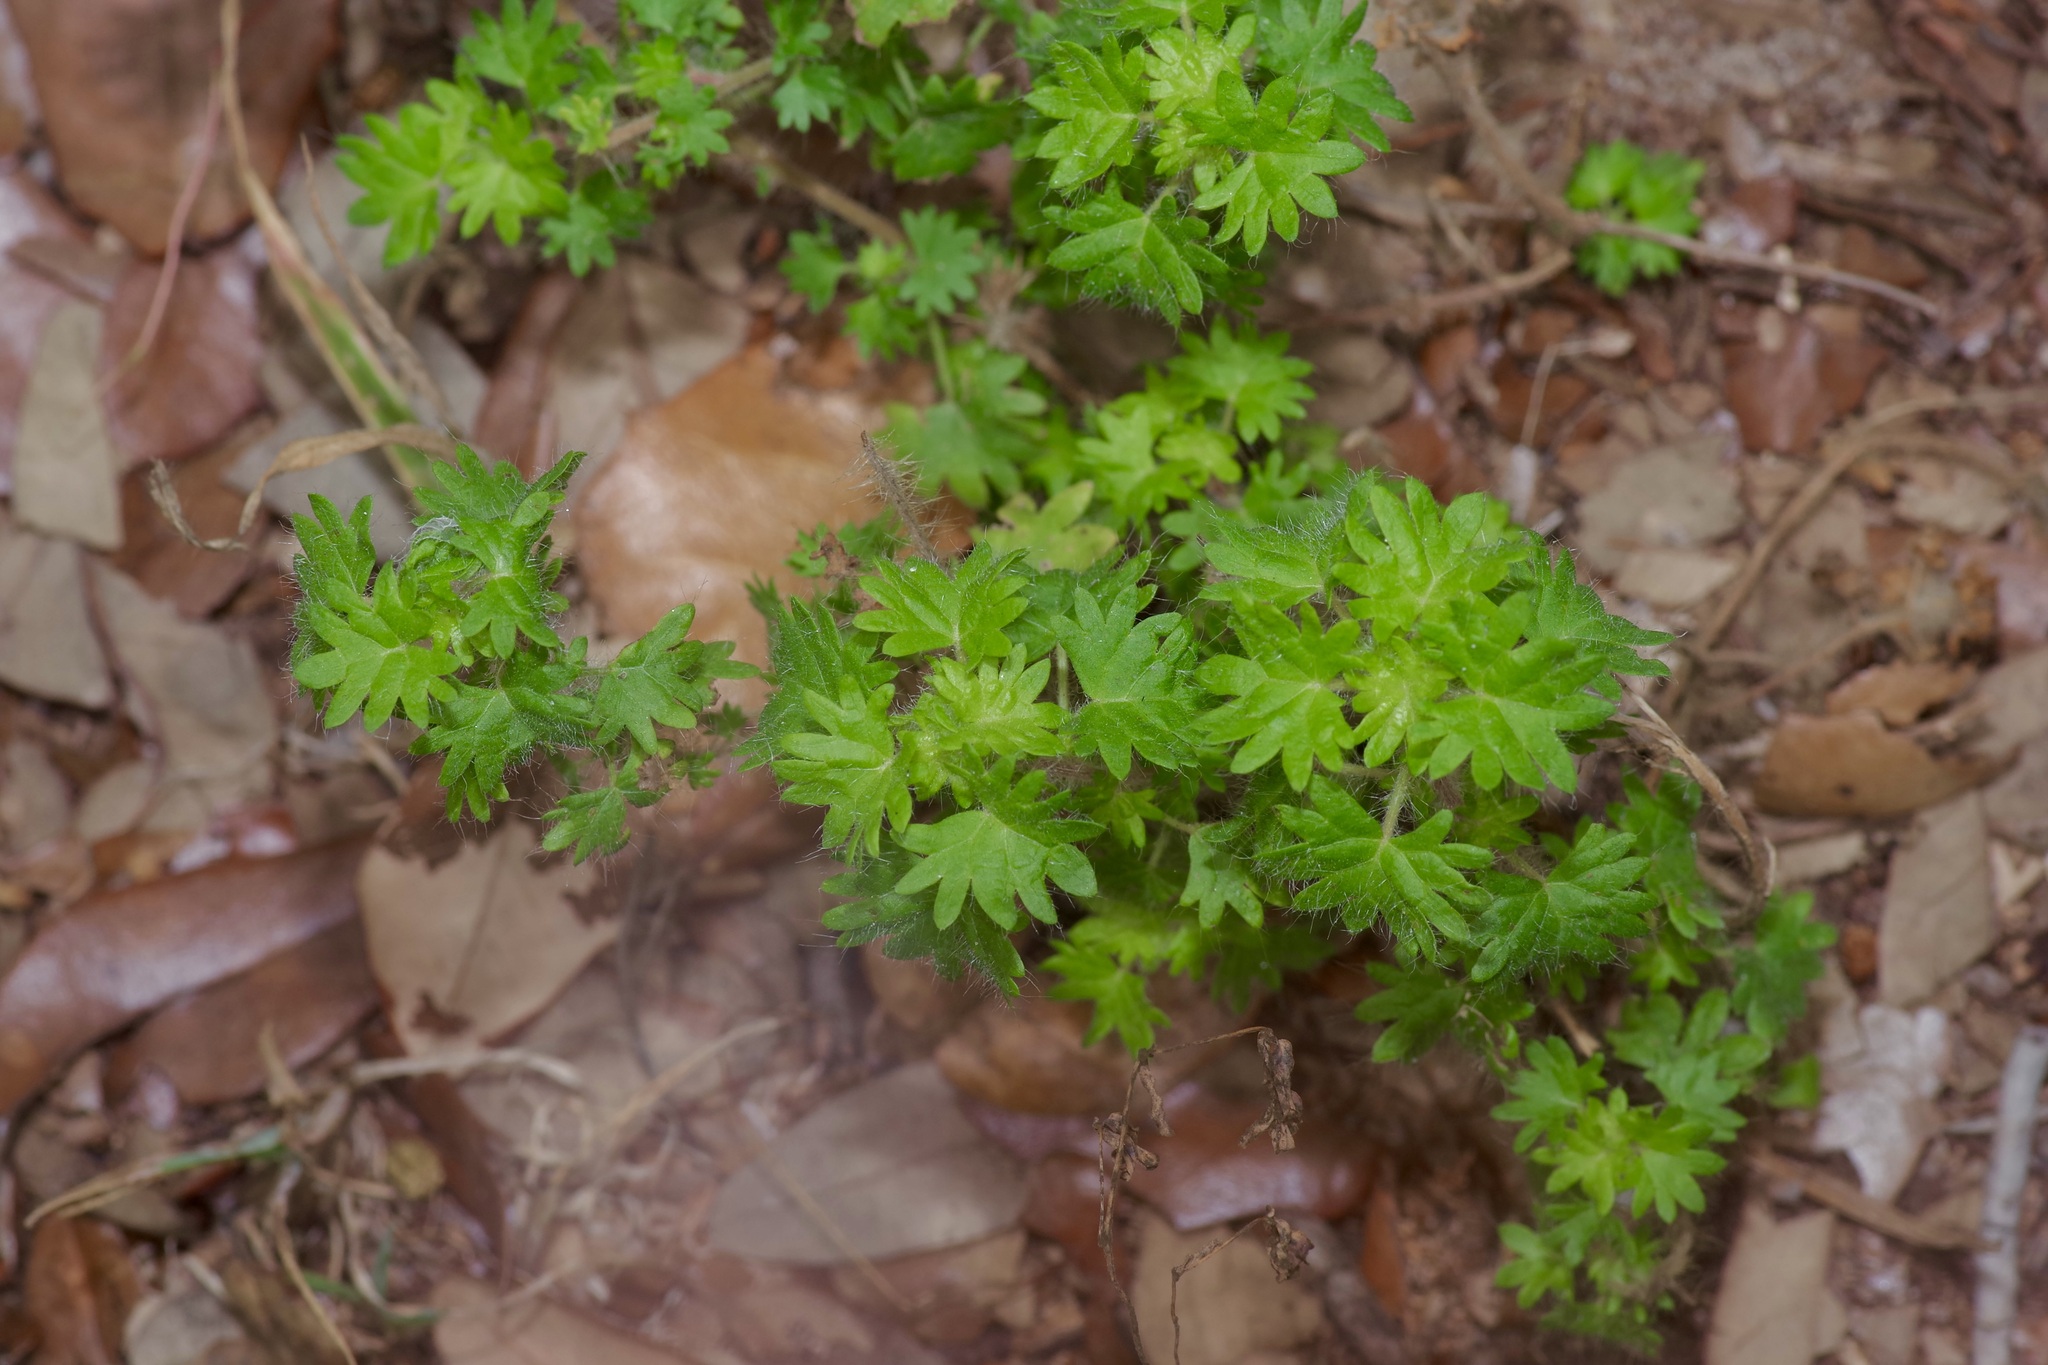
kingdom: Plantae
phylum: Tracheophyta
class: Magnoliopsida
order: Malpighiales
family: Euphorbiaceae
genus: Acalypha
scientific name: Acalypha radians
